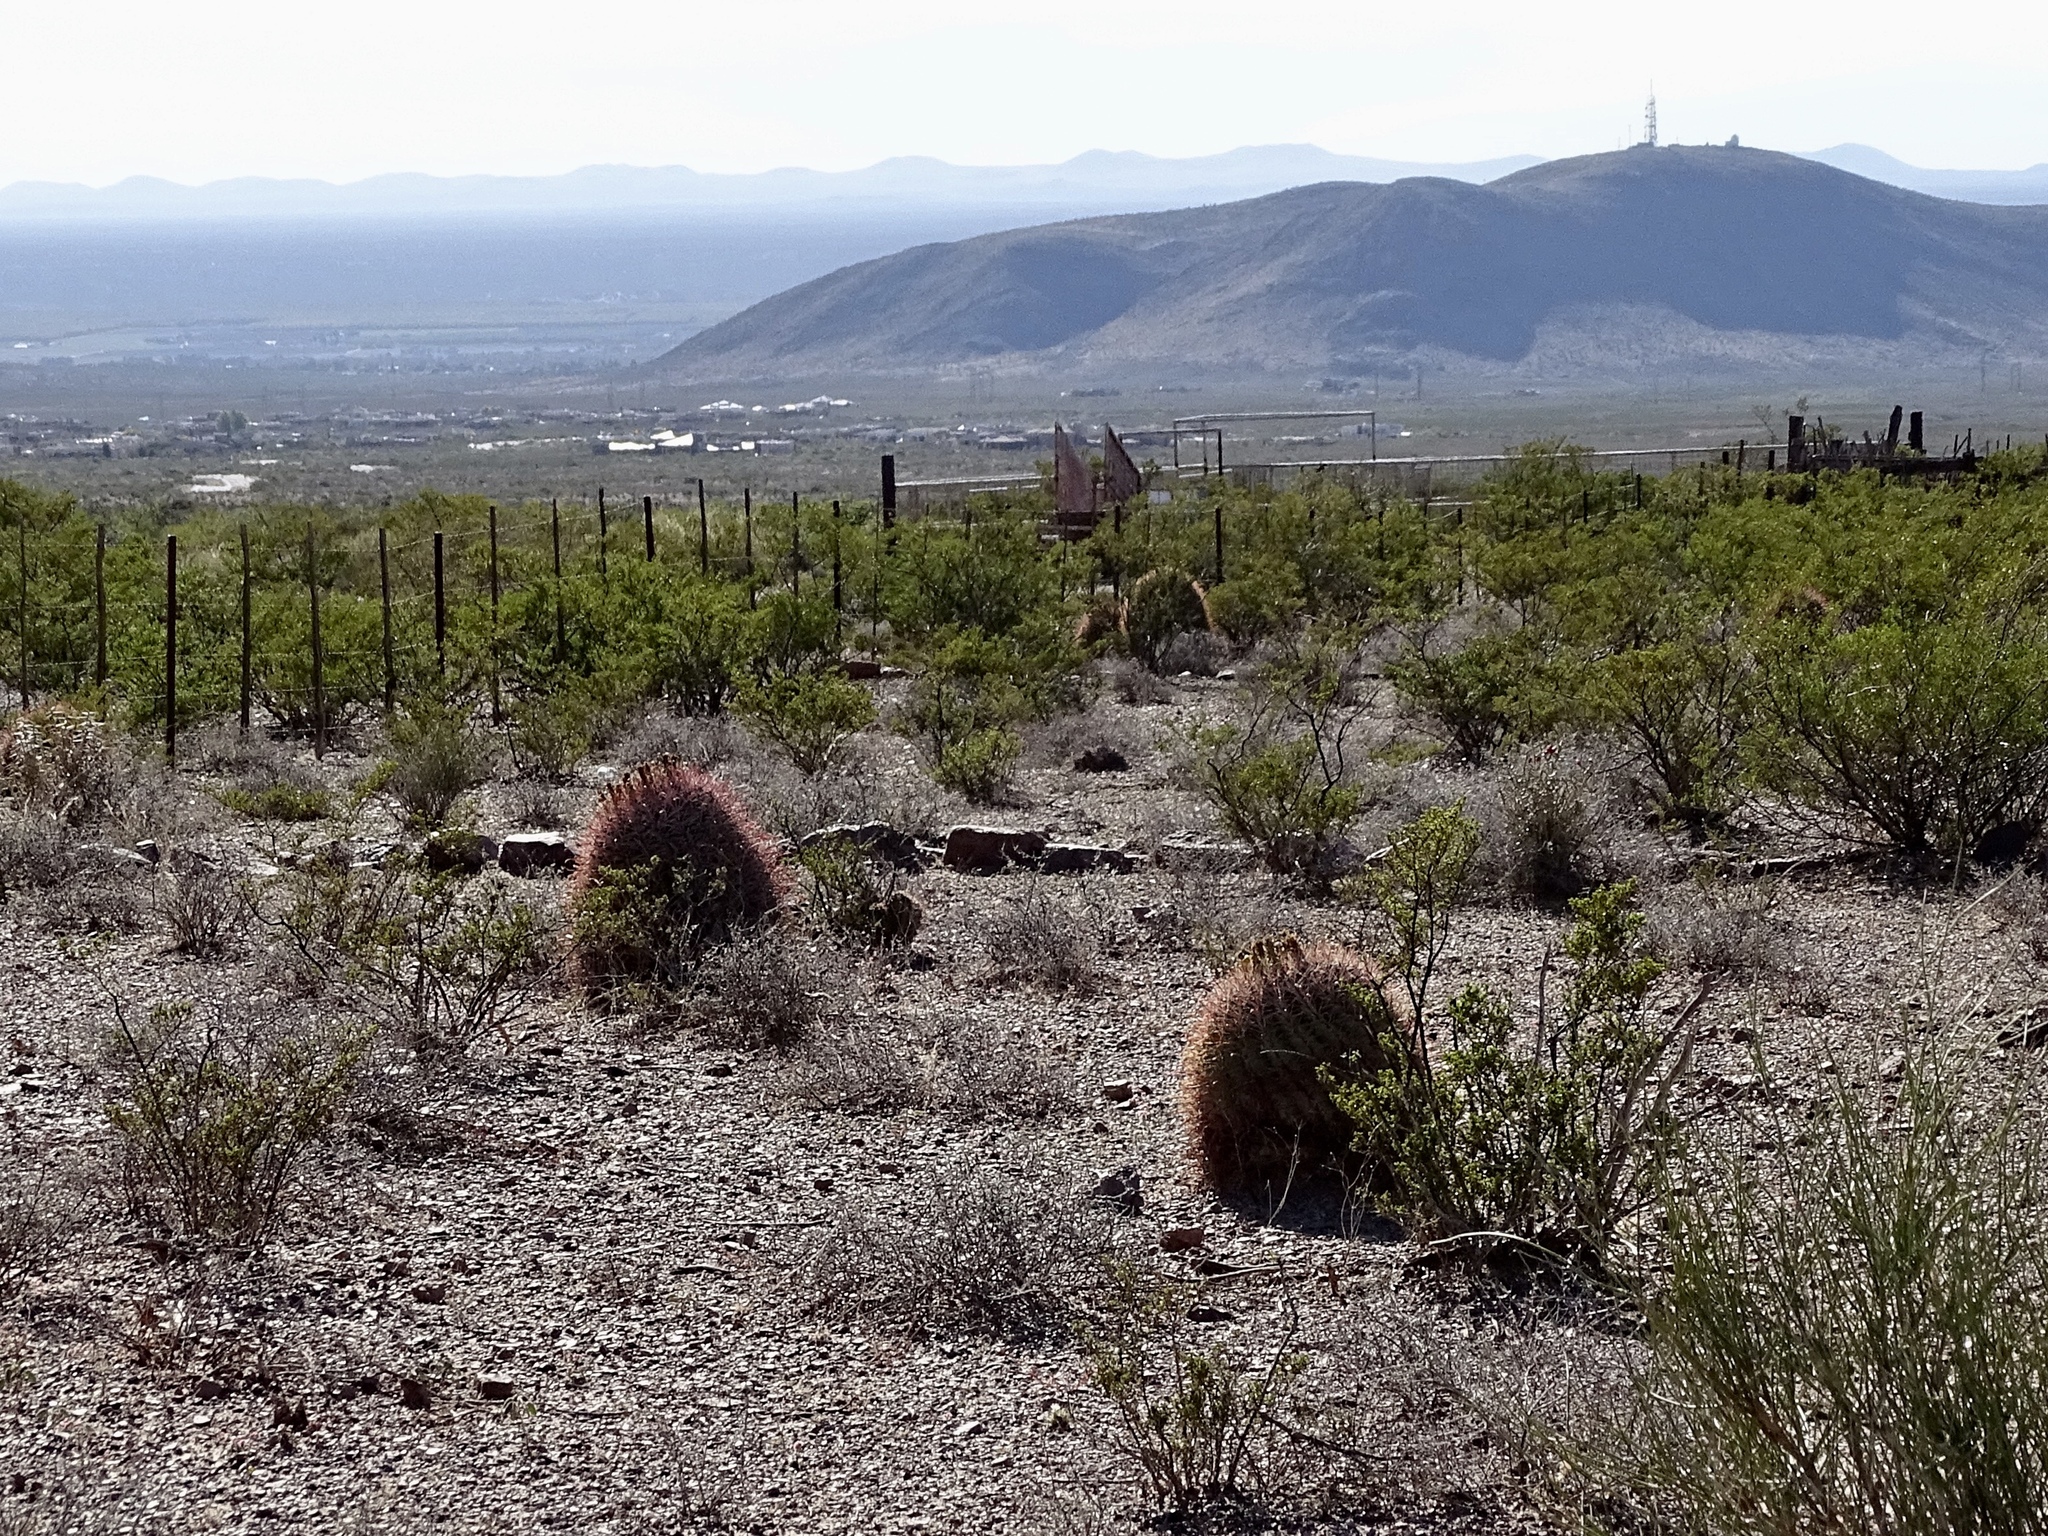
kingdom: Plantae
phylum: Tracheophyta
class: Magnoliopsida
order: Caryophyllales
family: Cactaceae
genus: Ferocactus
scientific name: Ferocactus wislizeni
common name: Candy barrel cactus
